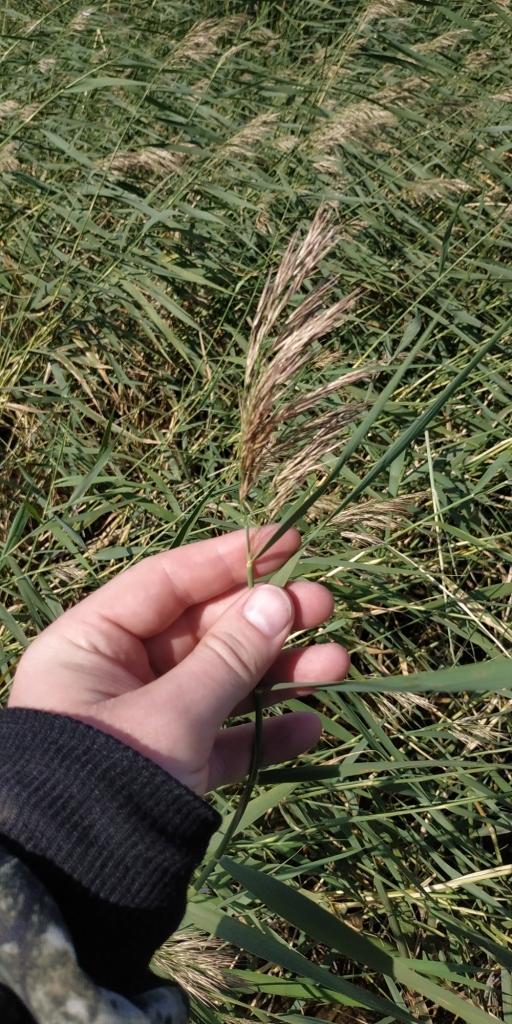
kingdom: Plantae
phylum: Tracheophyta
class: Liliopsida
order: Poales
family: Poaceae
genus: Phragmites
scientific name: Phragmites australis
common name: Common reed
